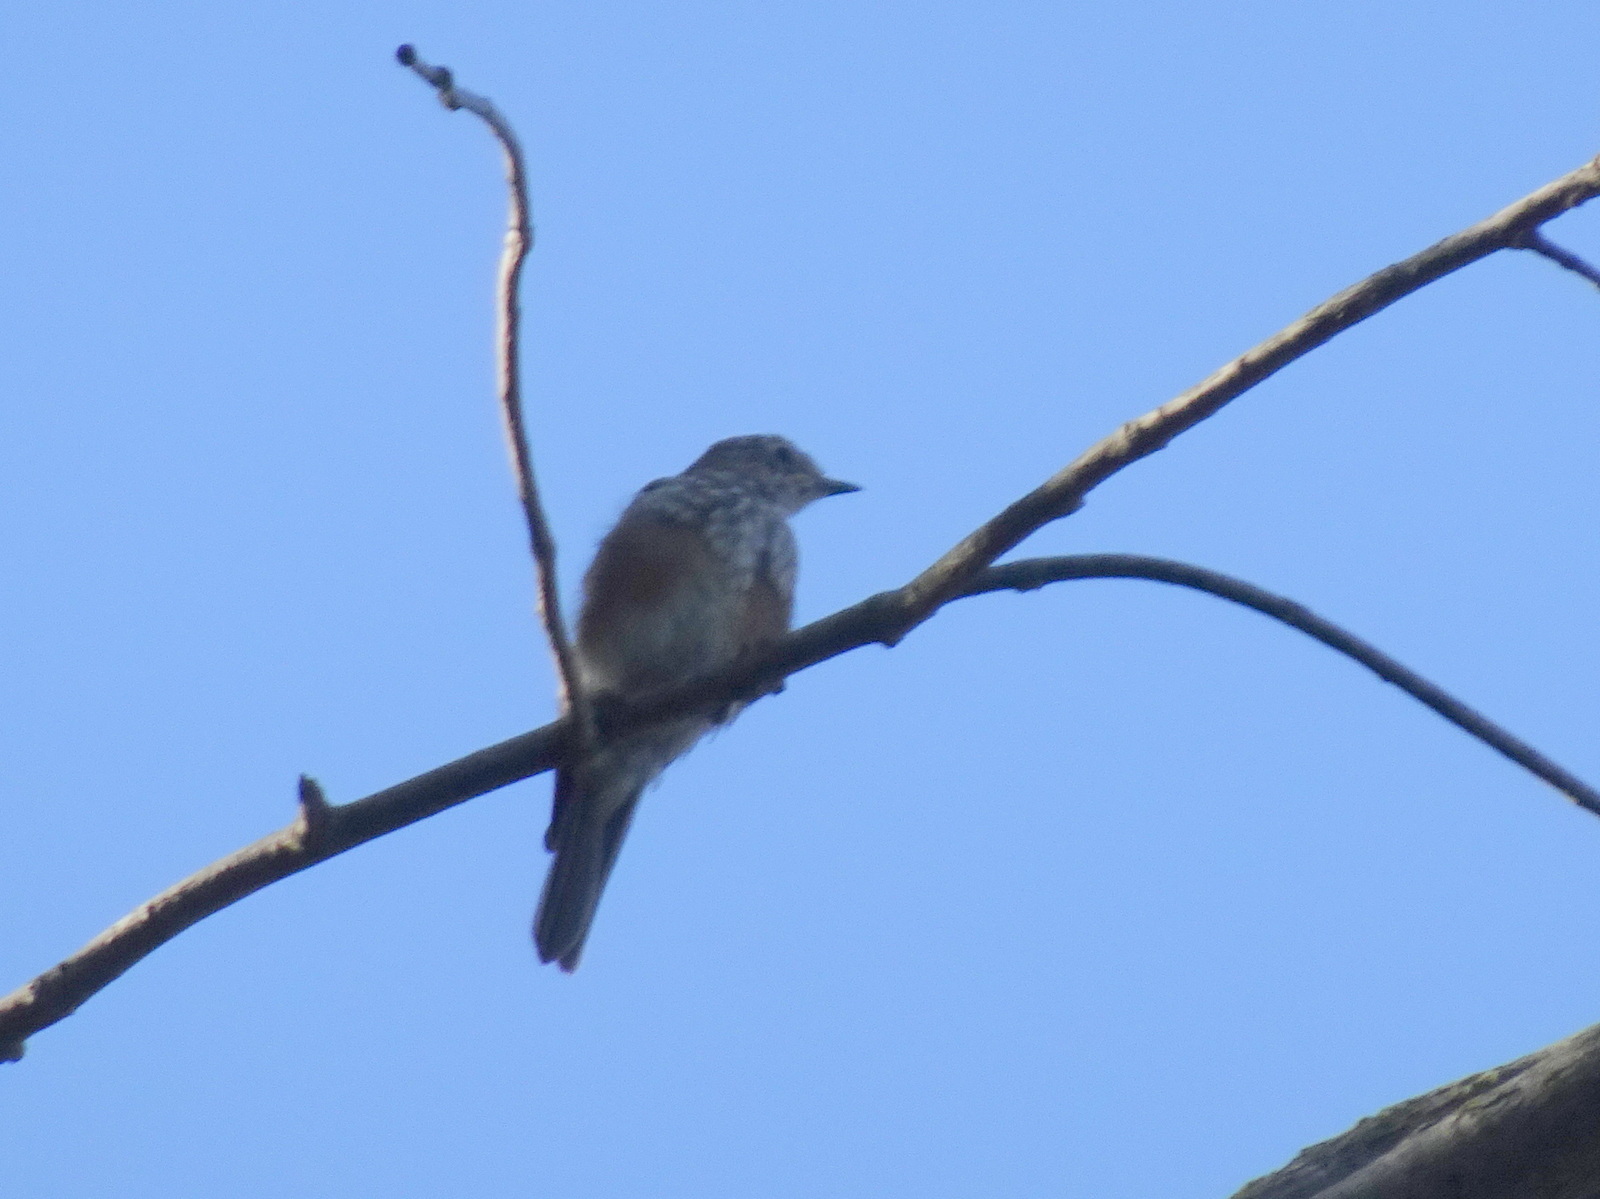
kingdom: Animalia
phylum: Chordata
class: Aves
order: Passeriformes
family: Turdidae
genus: Sialia
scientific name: Sialia sialis
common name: Eastern bluebird
